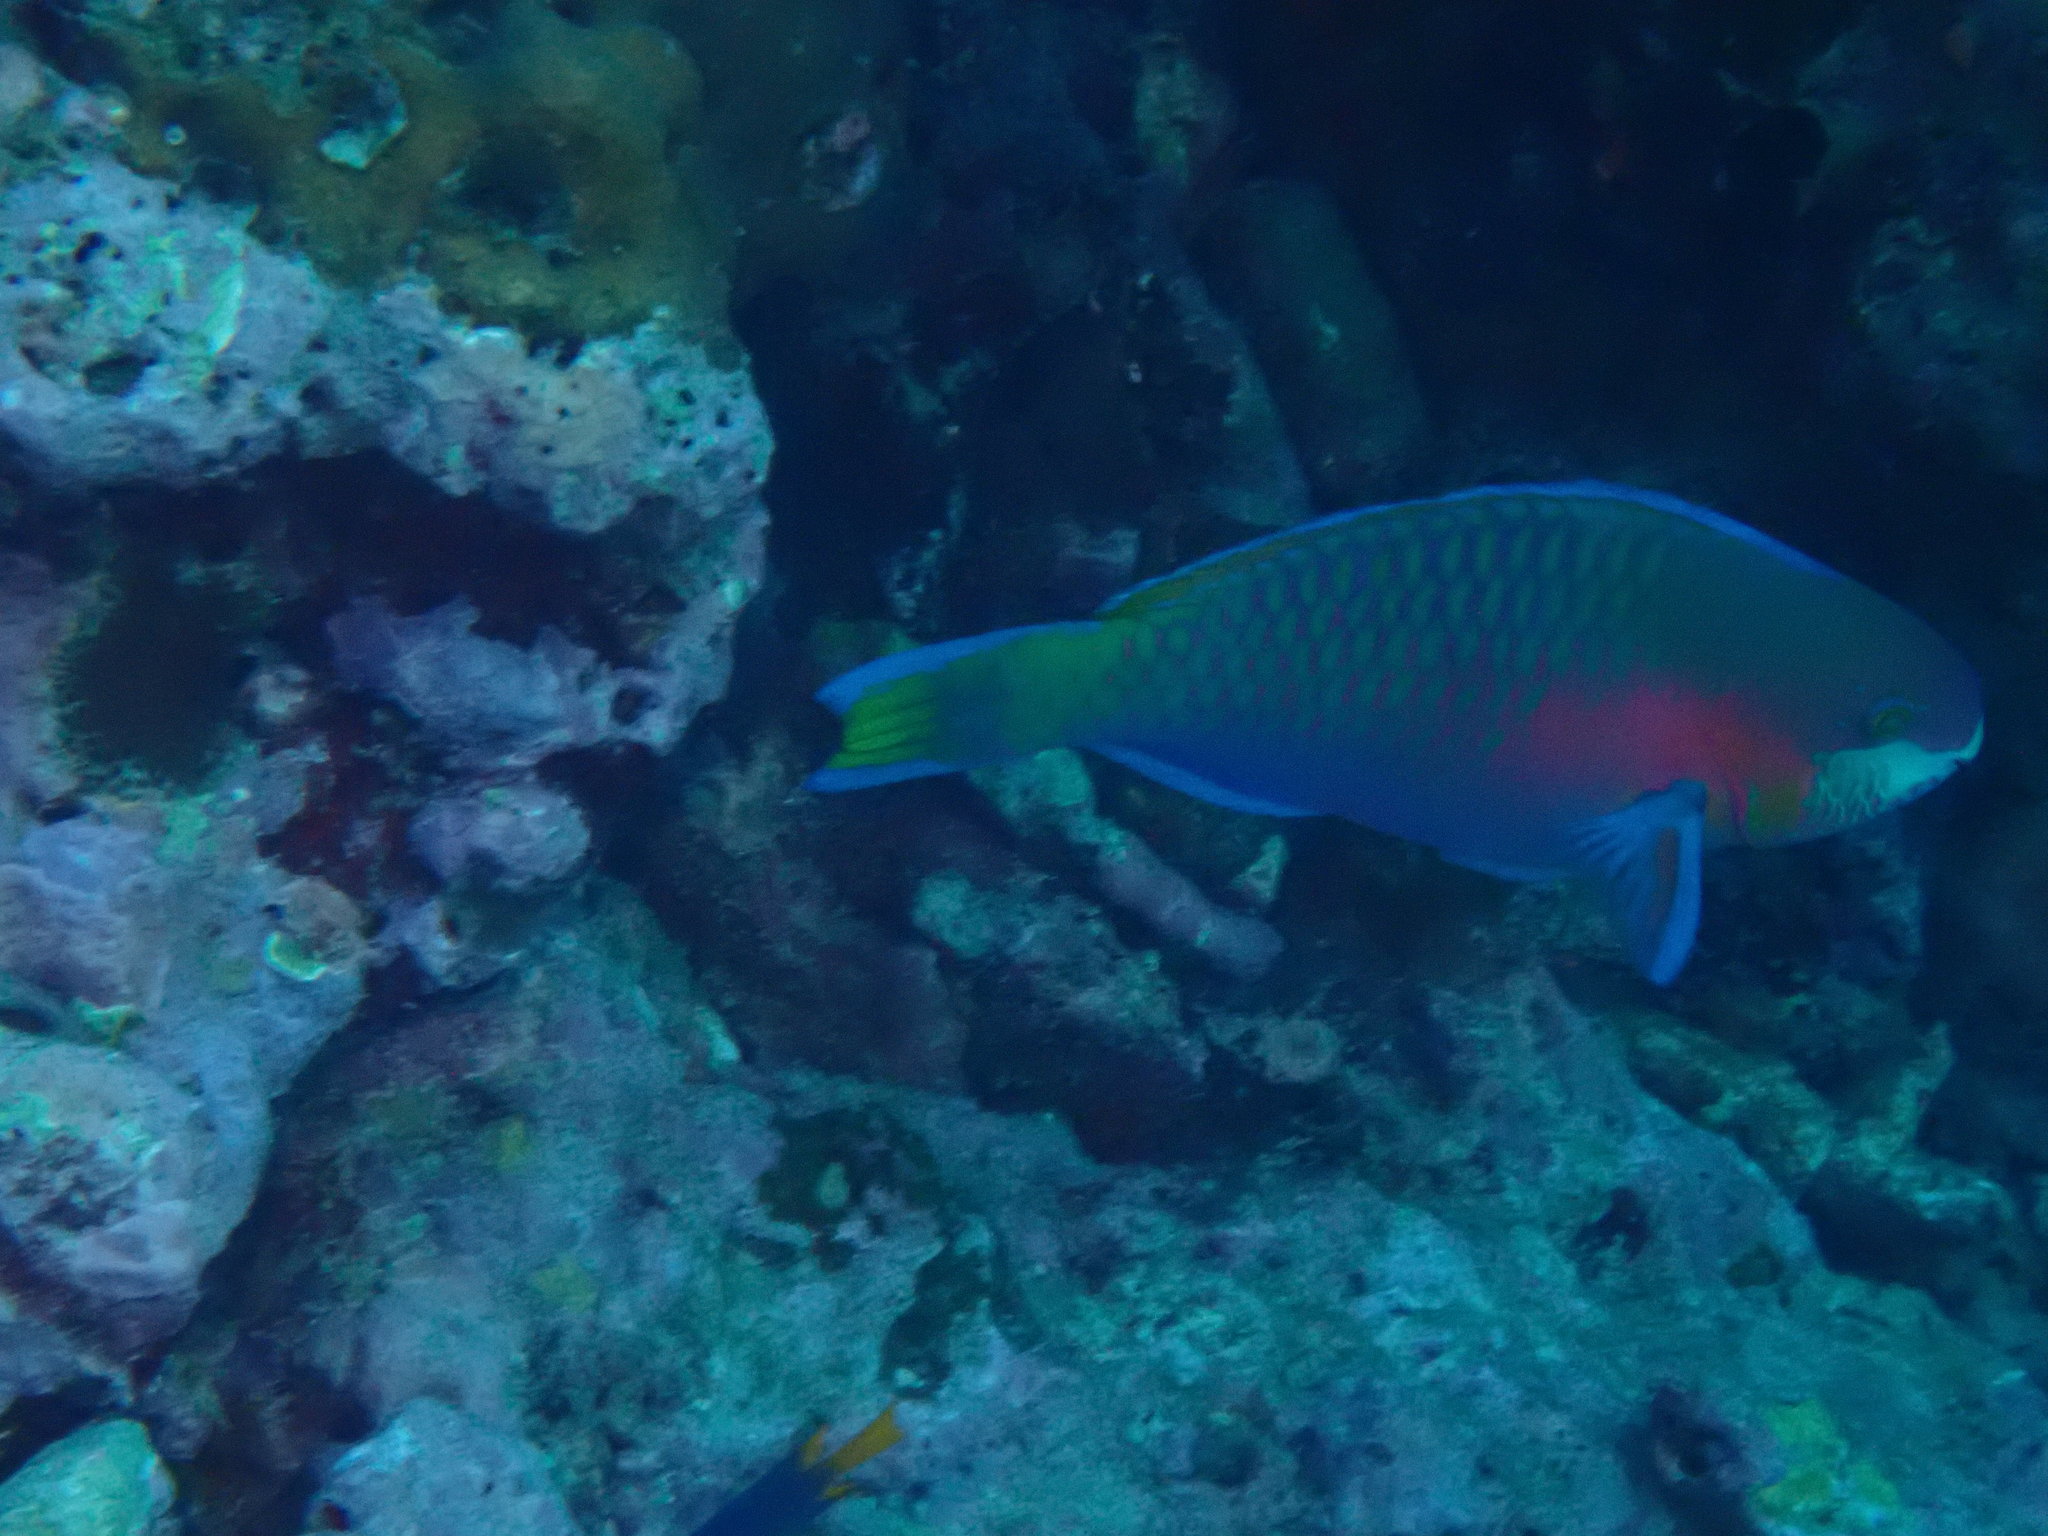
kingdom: Animalia
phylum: Chordata
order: Perciformes
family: Scaridae
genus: Scarus
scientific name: Scarus quoyi
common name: Quoy's parrotfish
